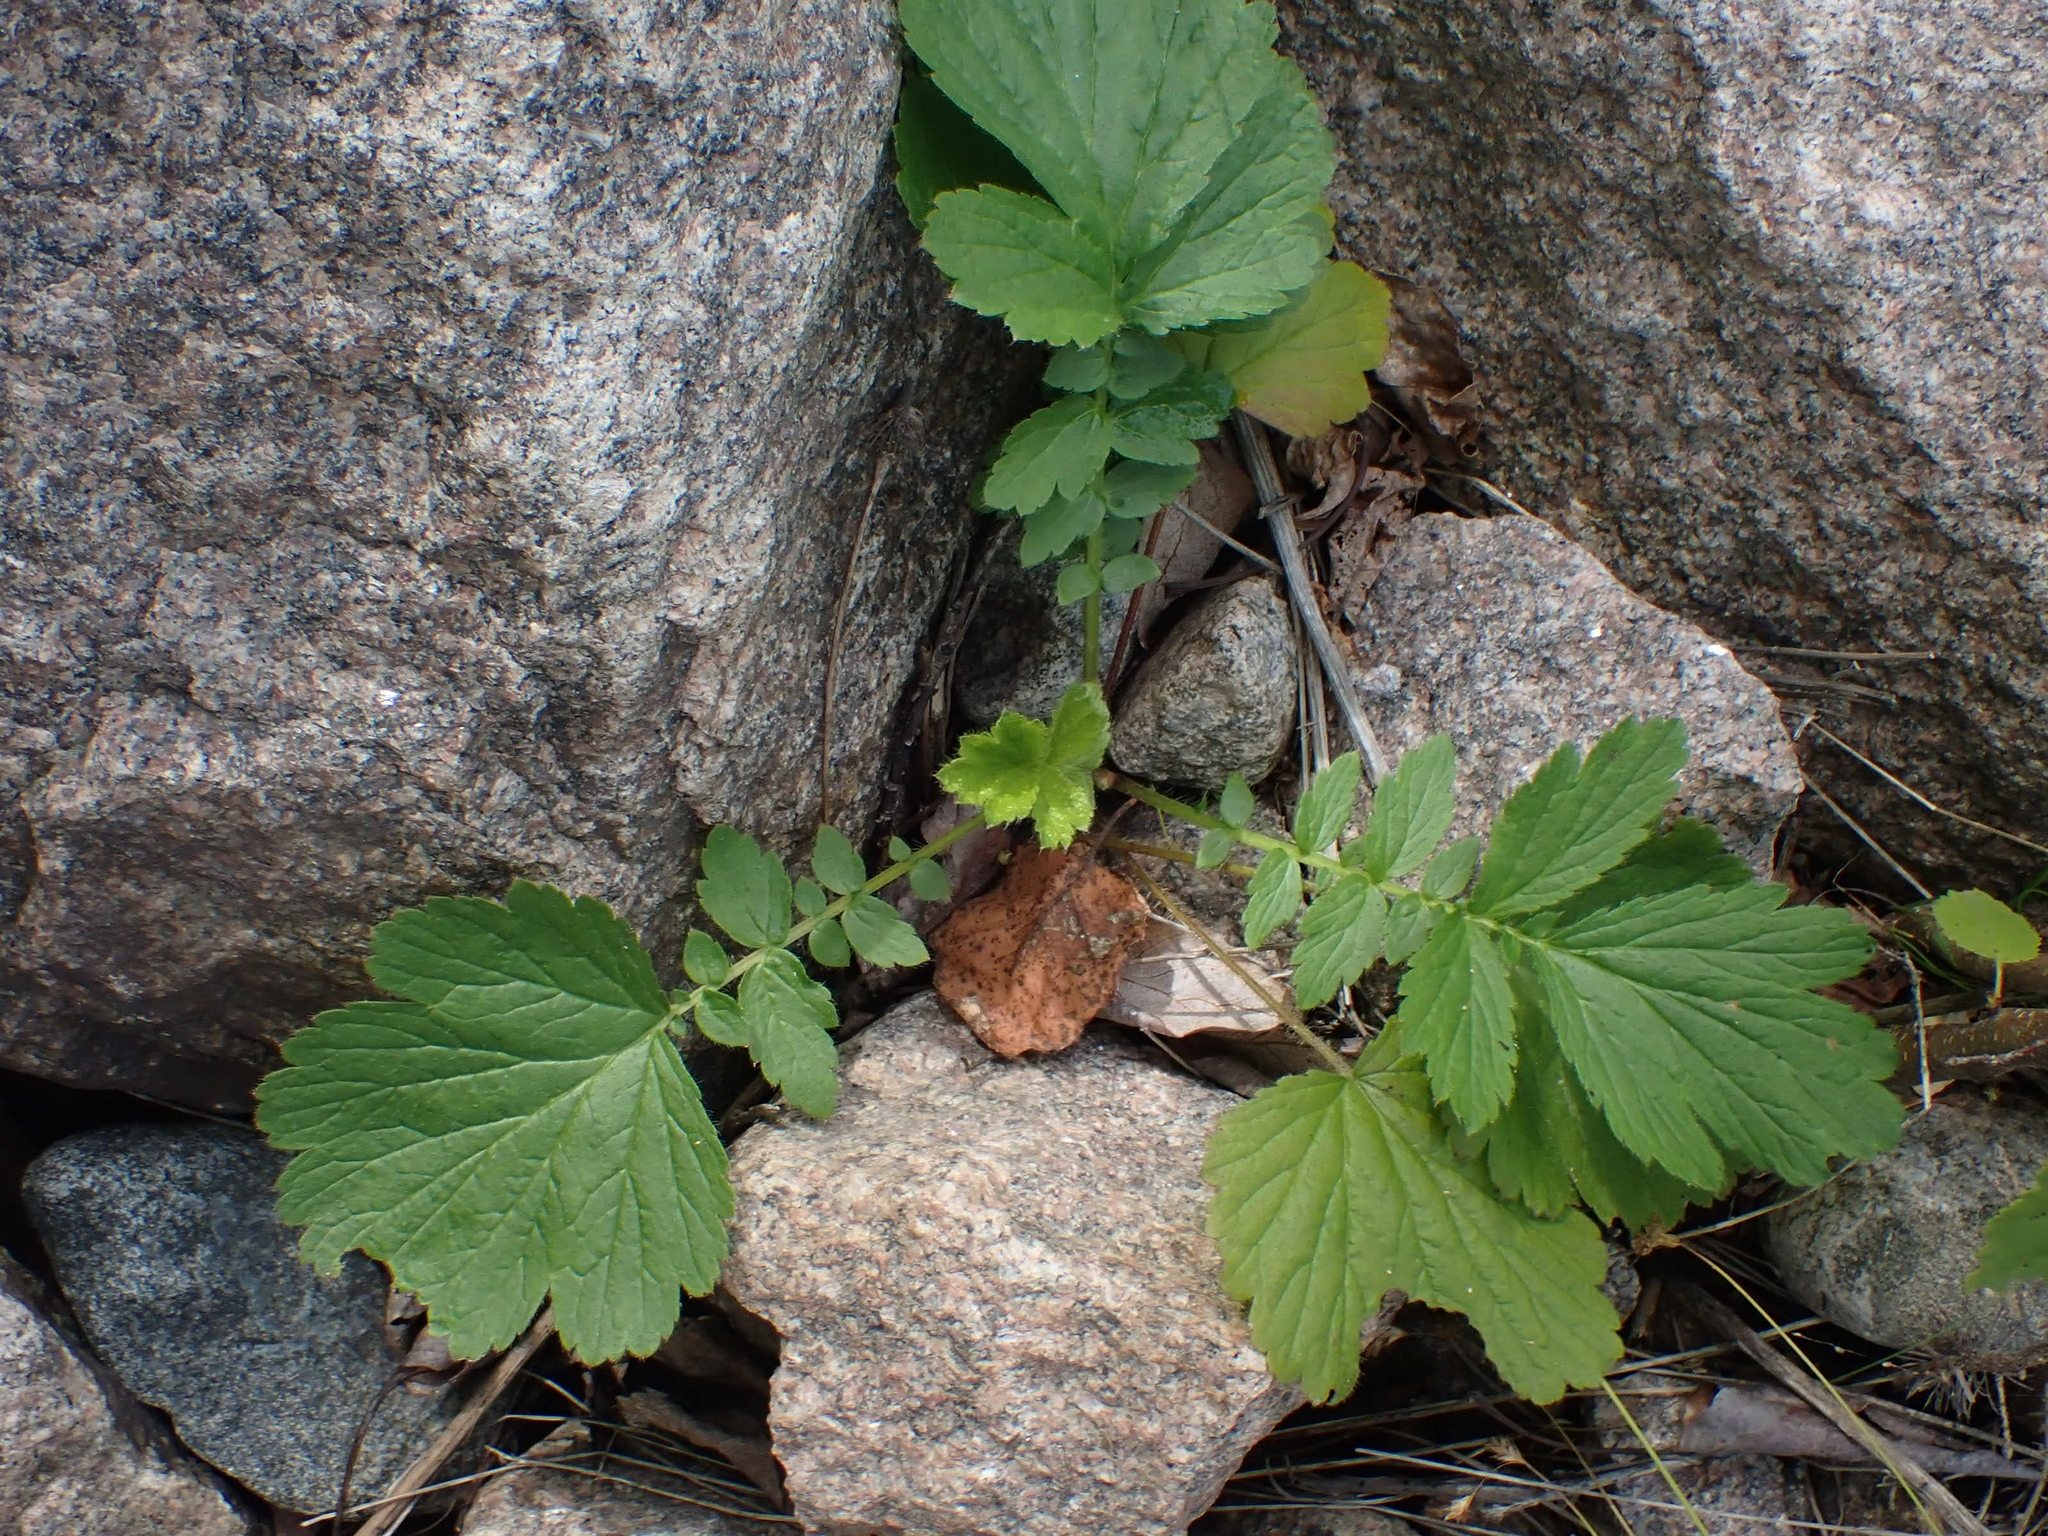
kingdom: Plantae
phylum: Tracheophyta
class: Magnoliopsida
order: Rosales
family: Rosaceae
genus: Geum
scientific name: Geum aleppicum
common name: Yellow avens
